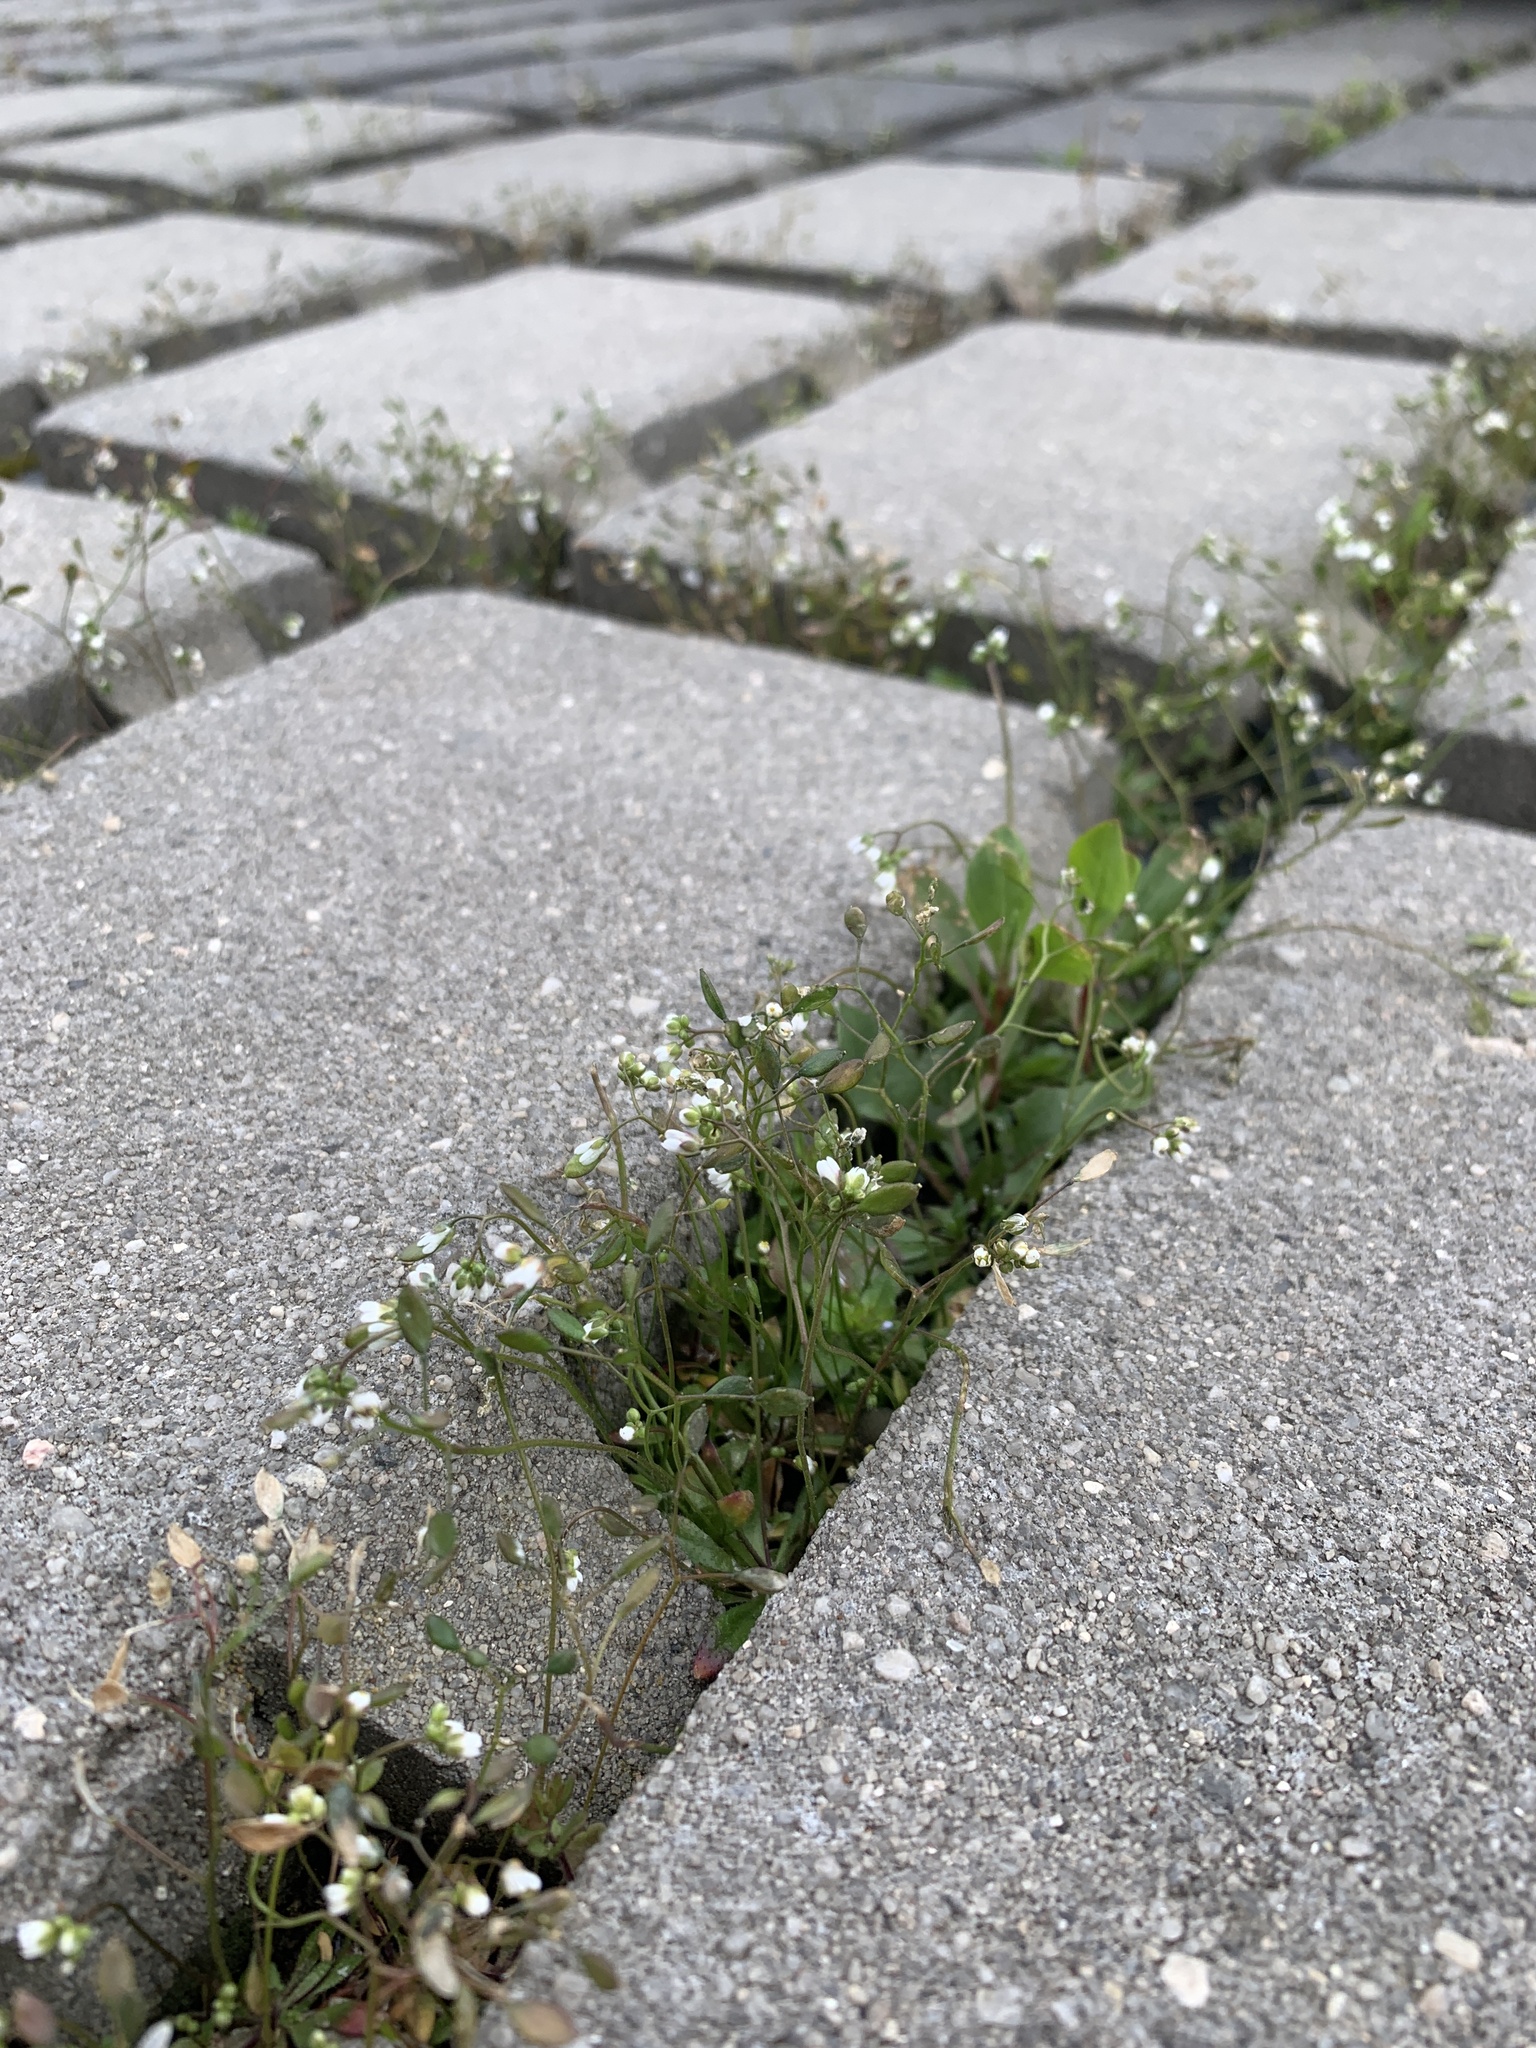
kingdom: Plantae
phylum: Tracheophyta
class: Magnoliopsida
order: Brassicales
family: Brassicaceae
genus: Draba
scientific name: Draba verna
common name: Spring draba
